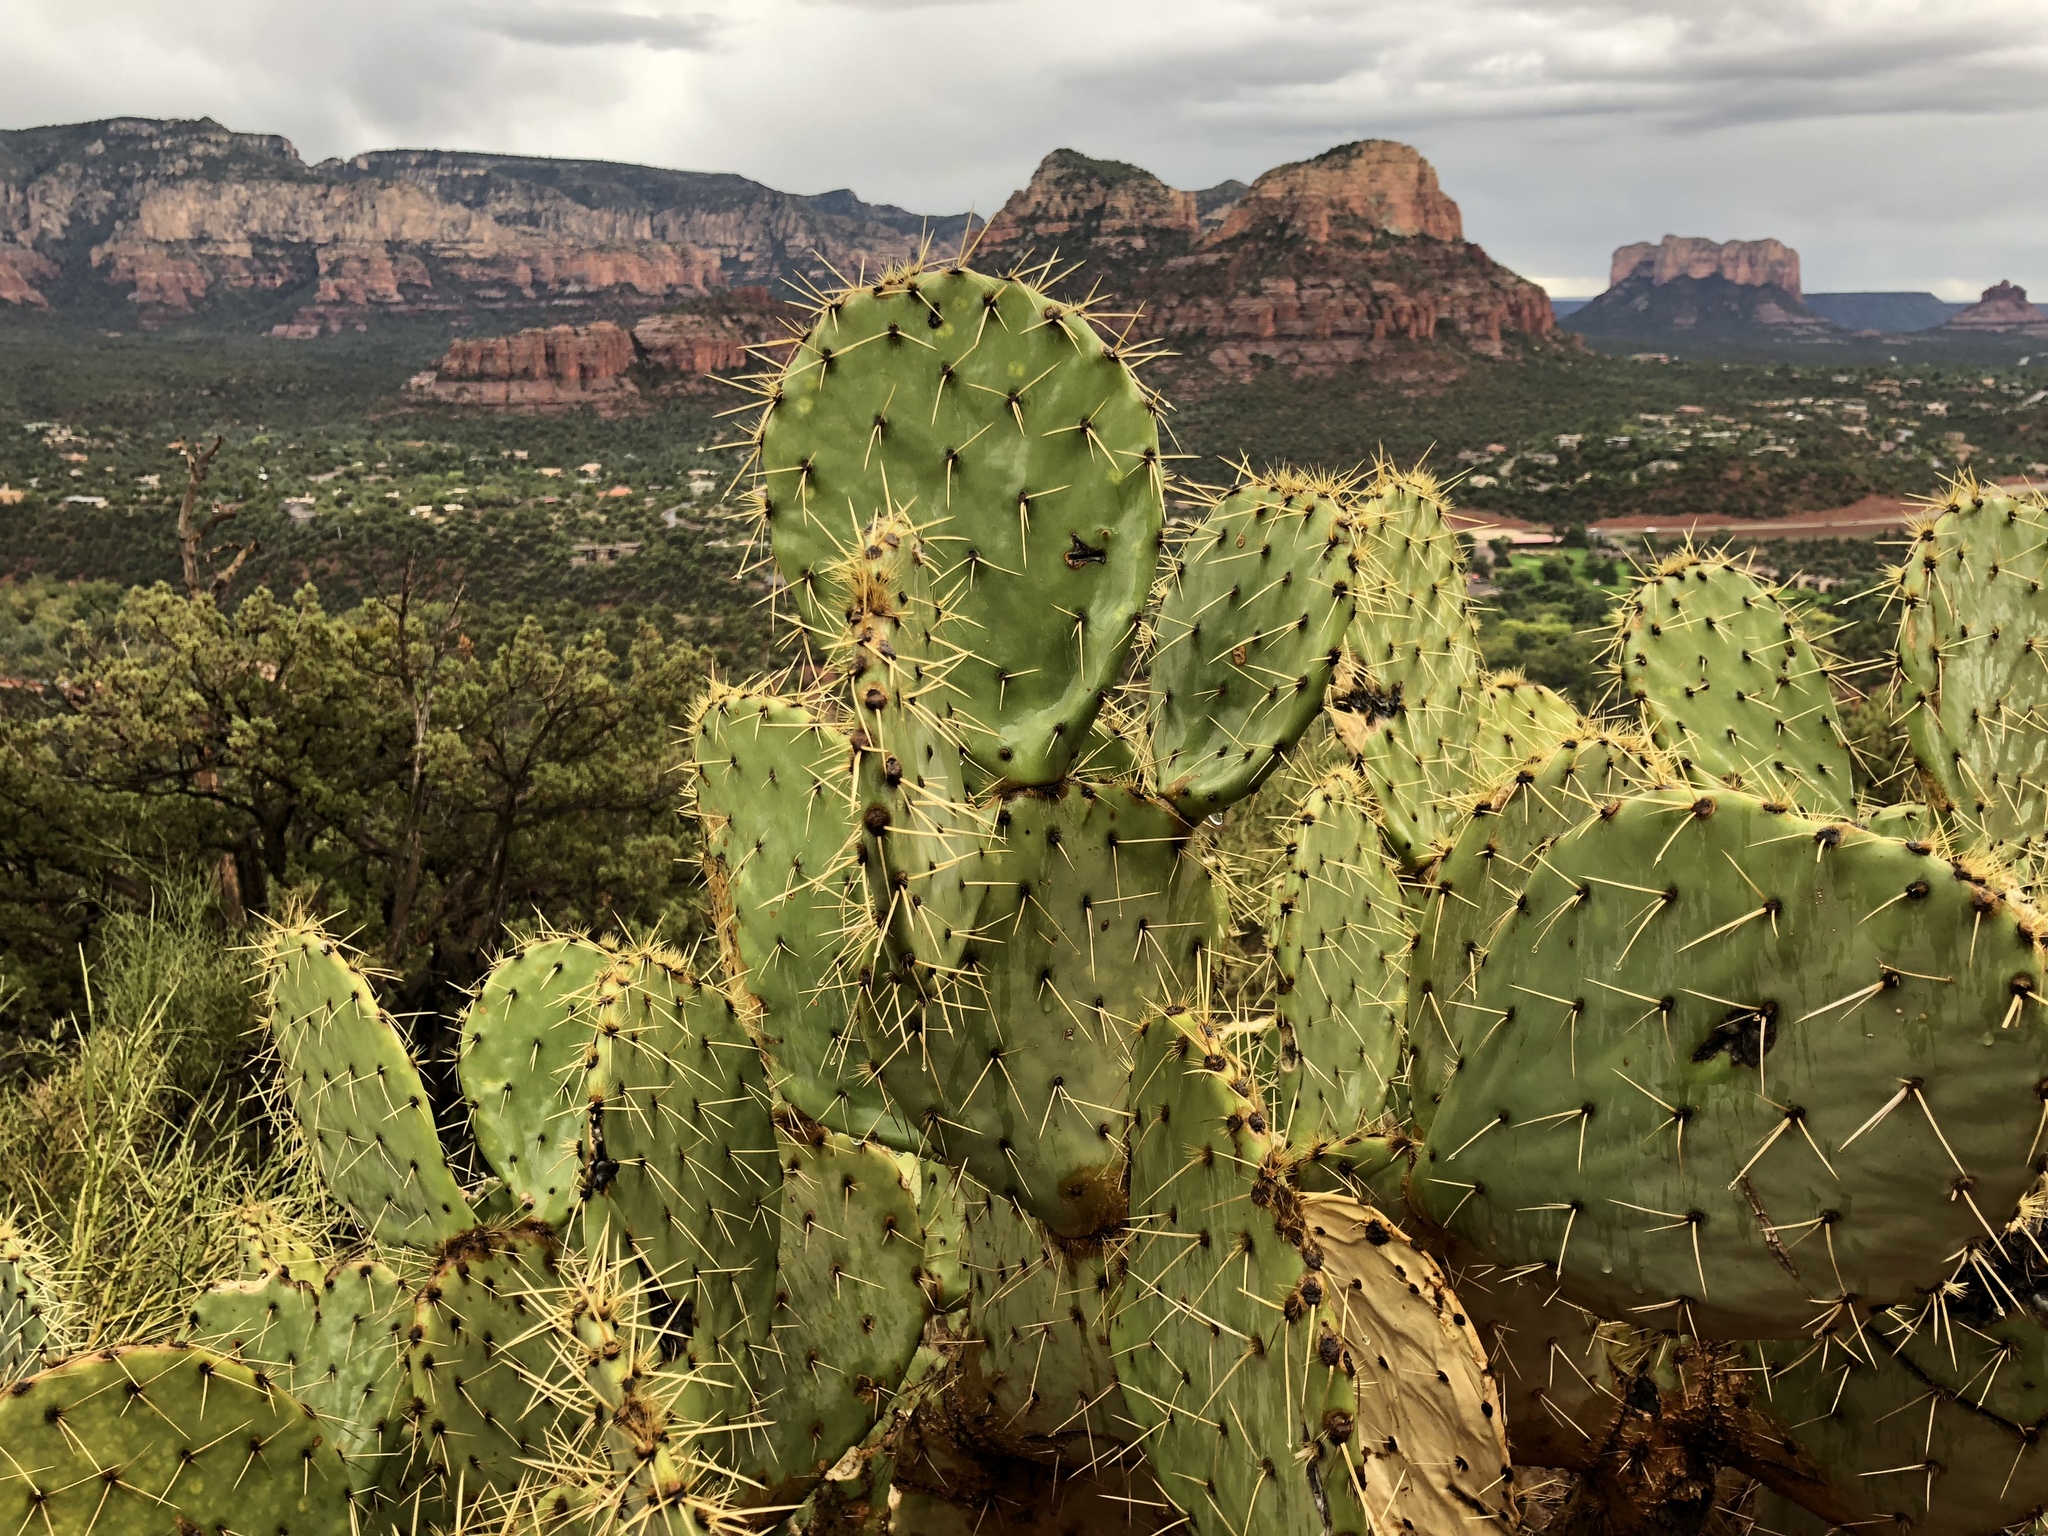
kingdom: Plantae
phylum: Tracheophyta
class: Magnoliopsida
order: Caryophyllales
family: Cactaceae
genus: Opuntia
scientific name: Opuntia engelmannii
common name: Cactus-apple
